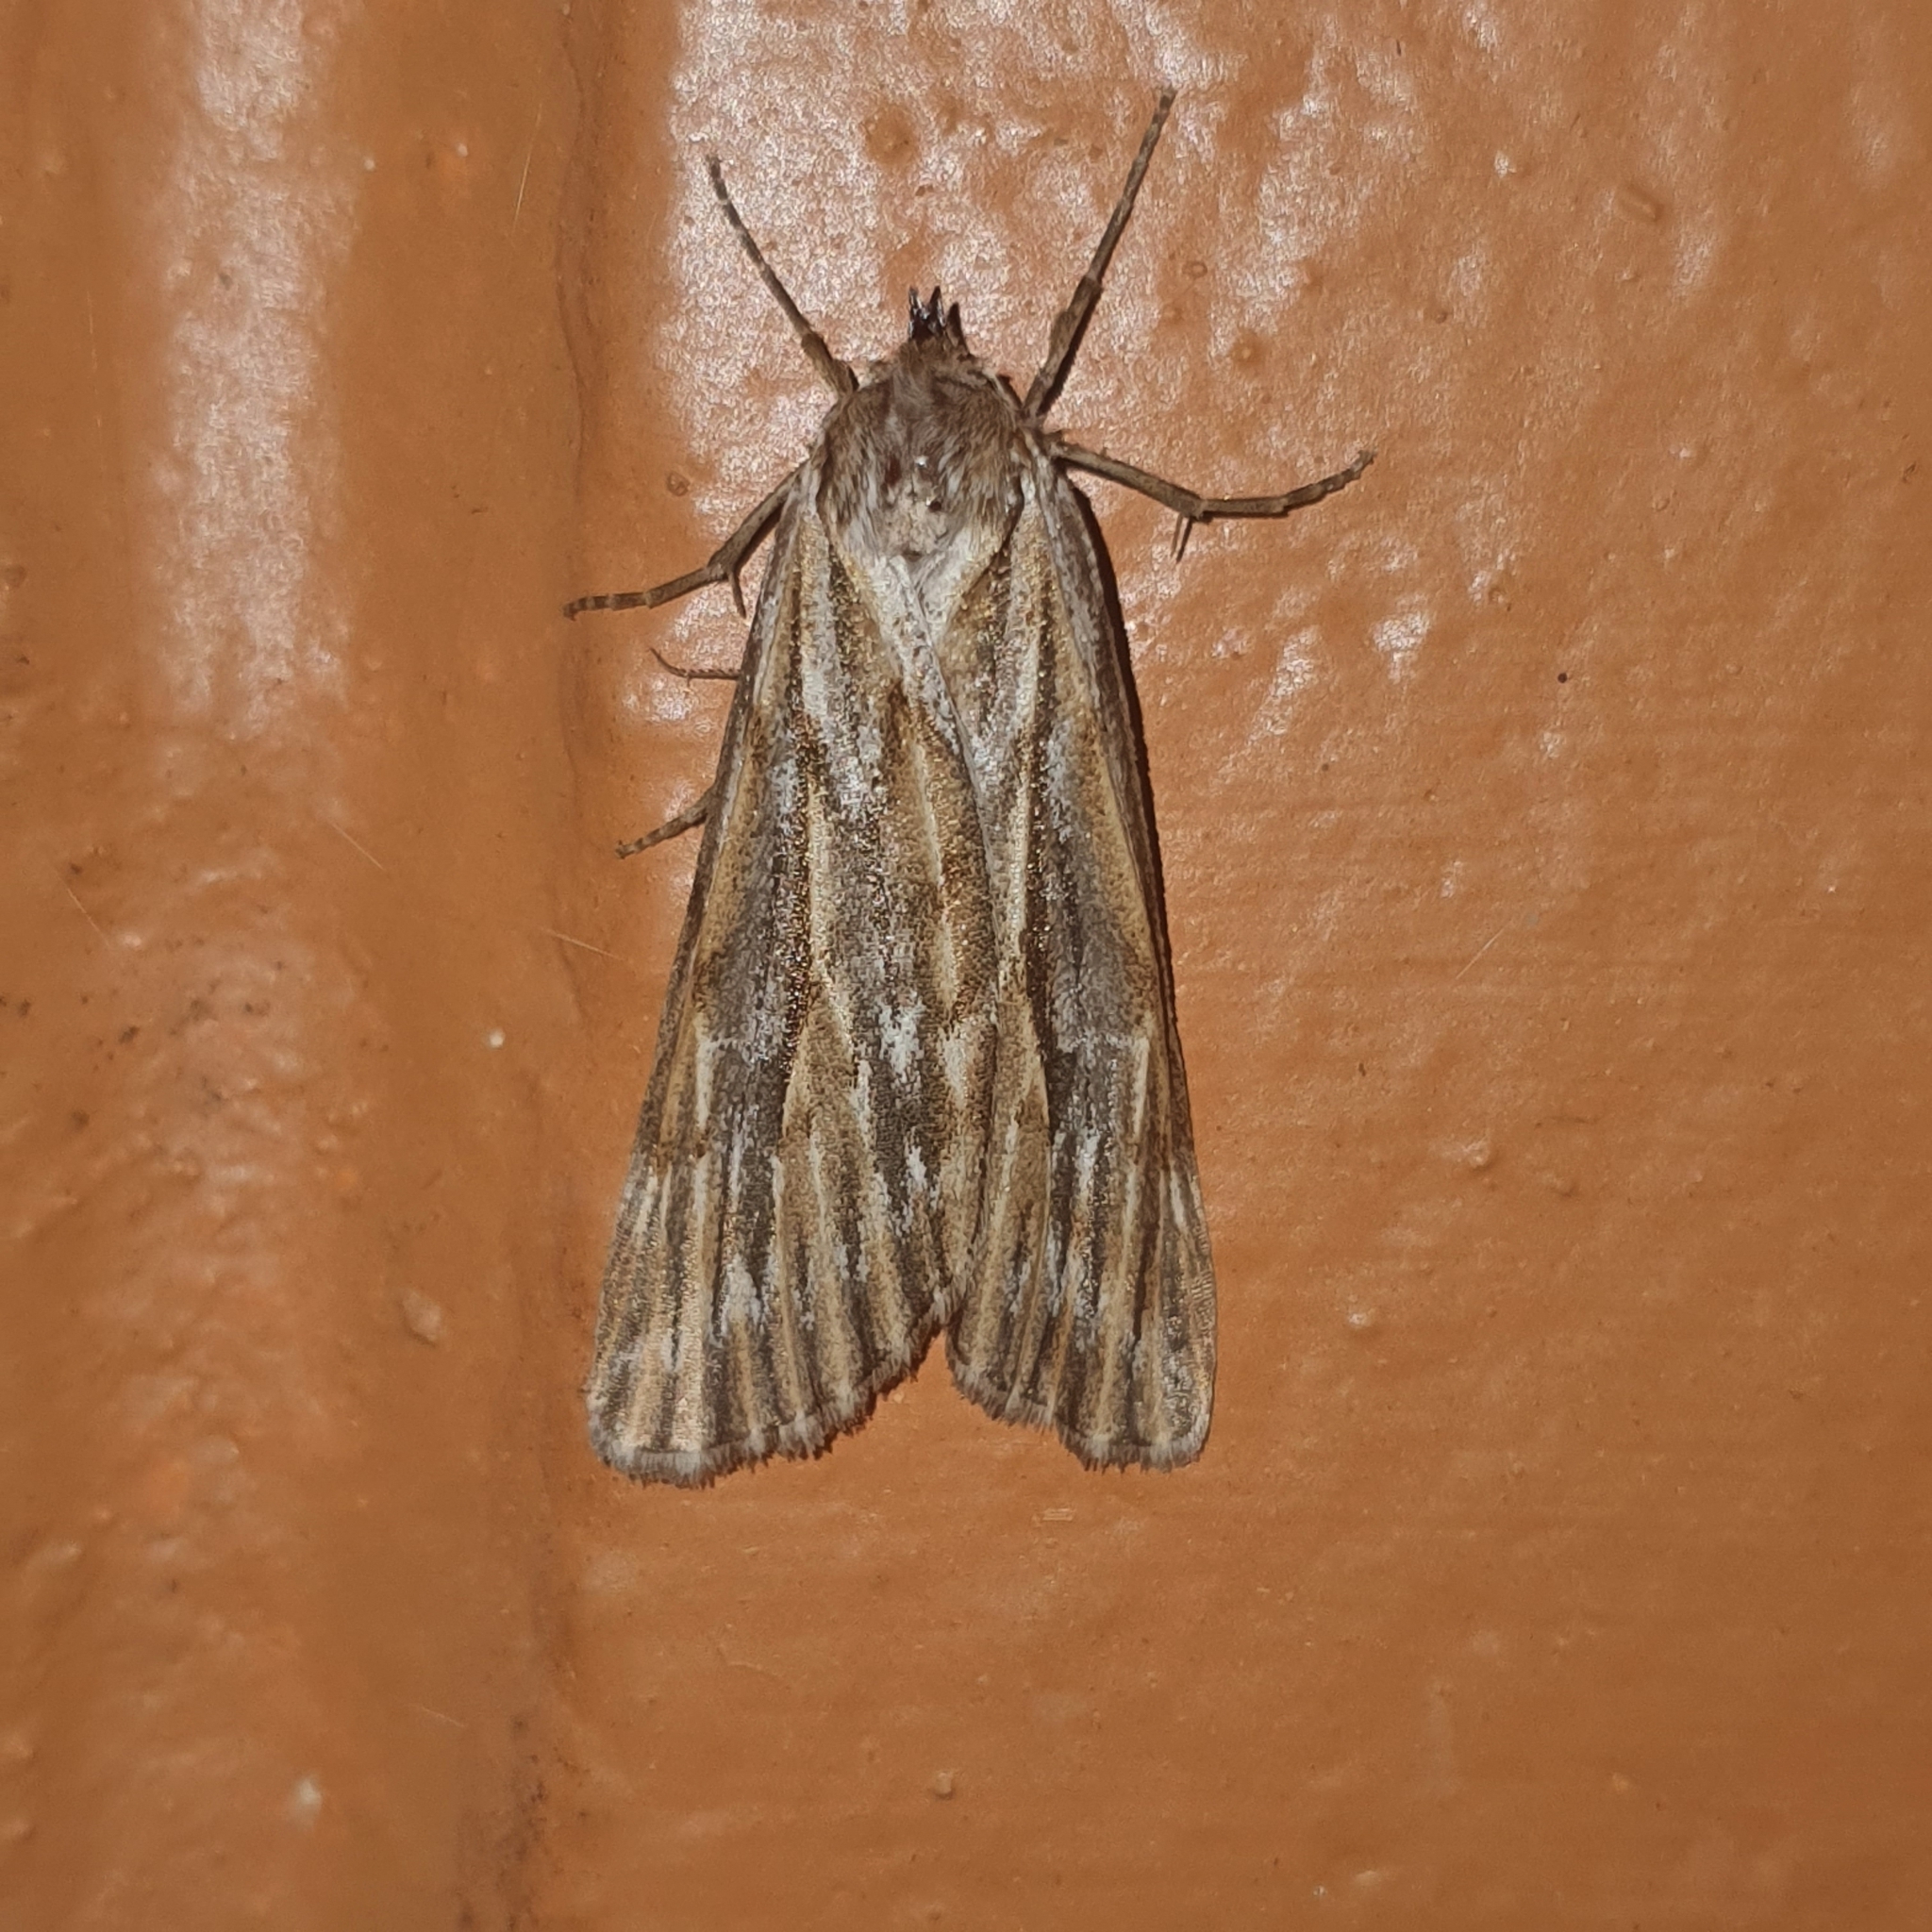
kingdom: Animalia
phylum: Arthropoda
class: Insecta
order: Lepidoptera
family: Geometridae
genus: Ciampa
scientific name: Ciampa arietaria
